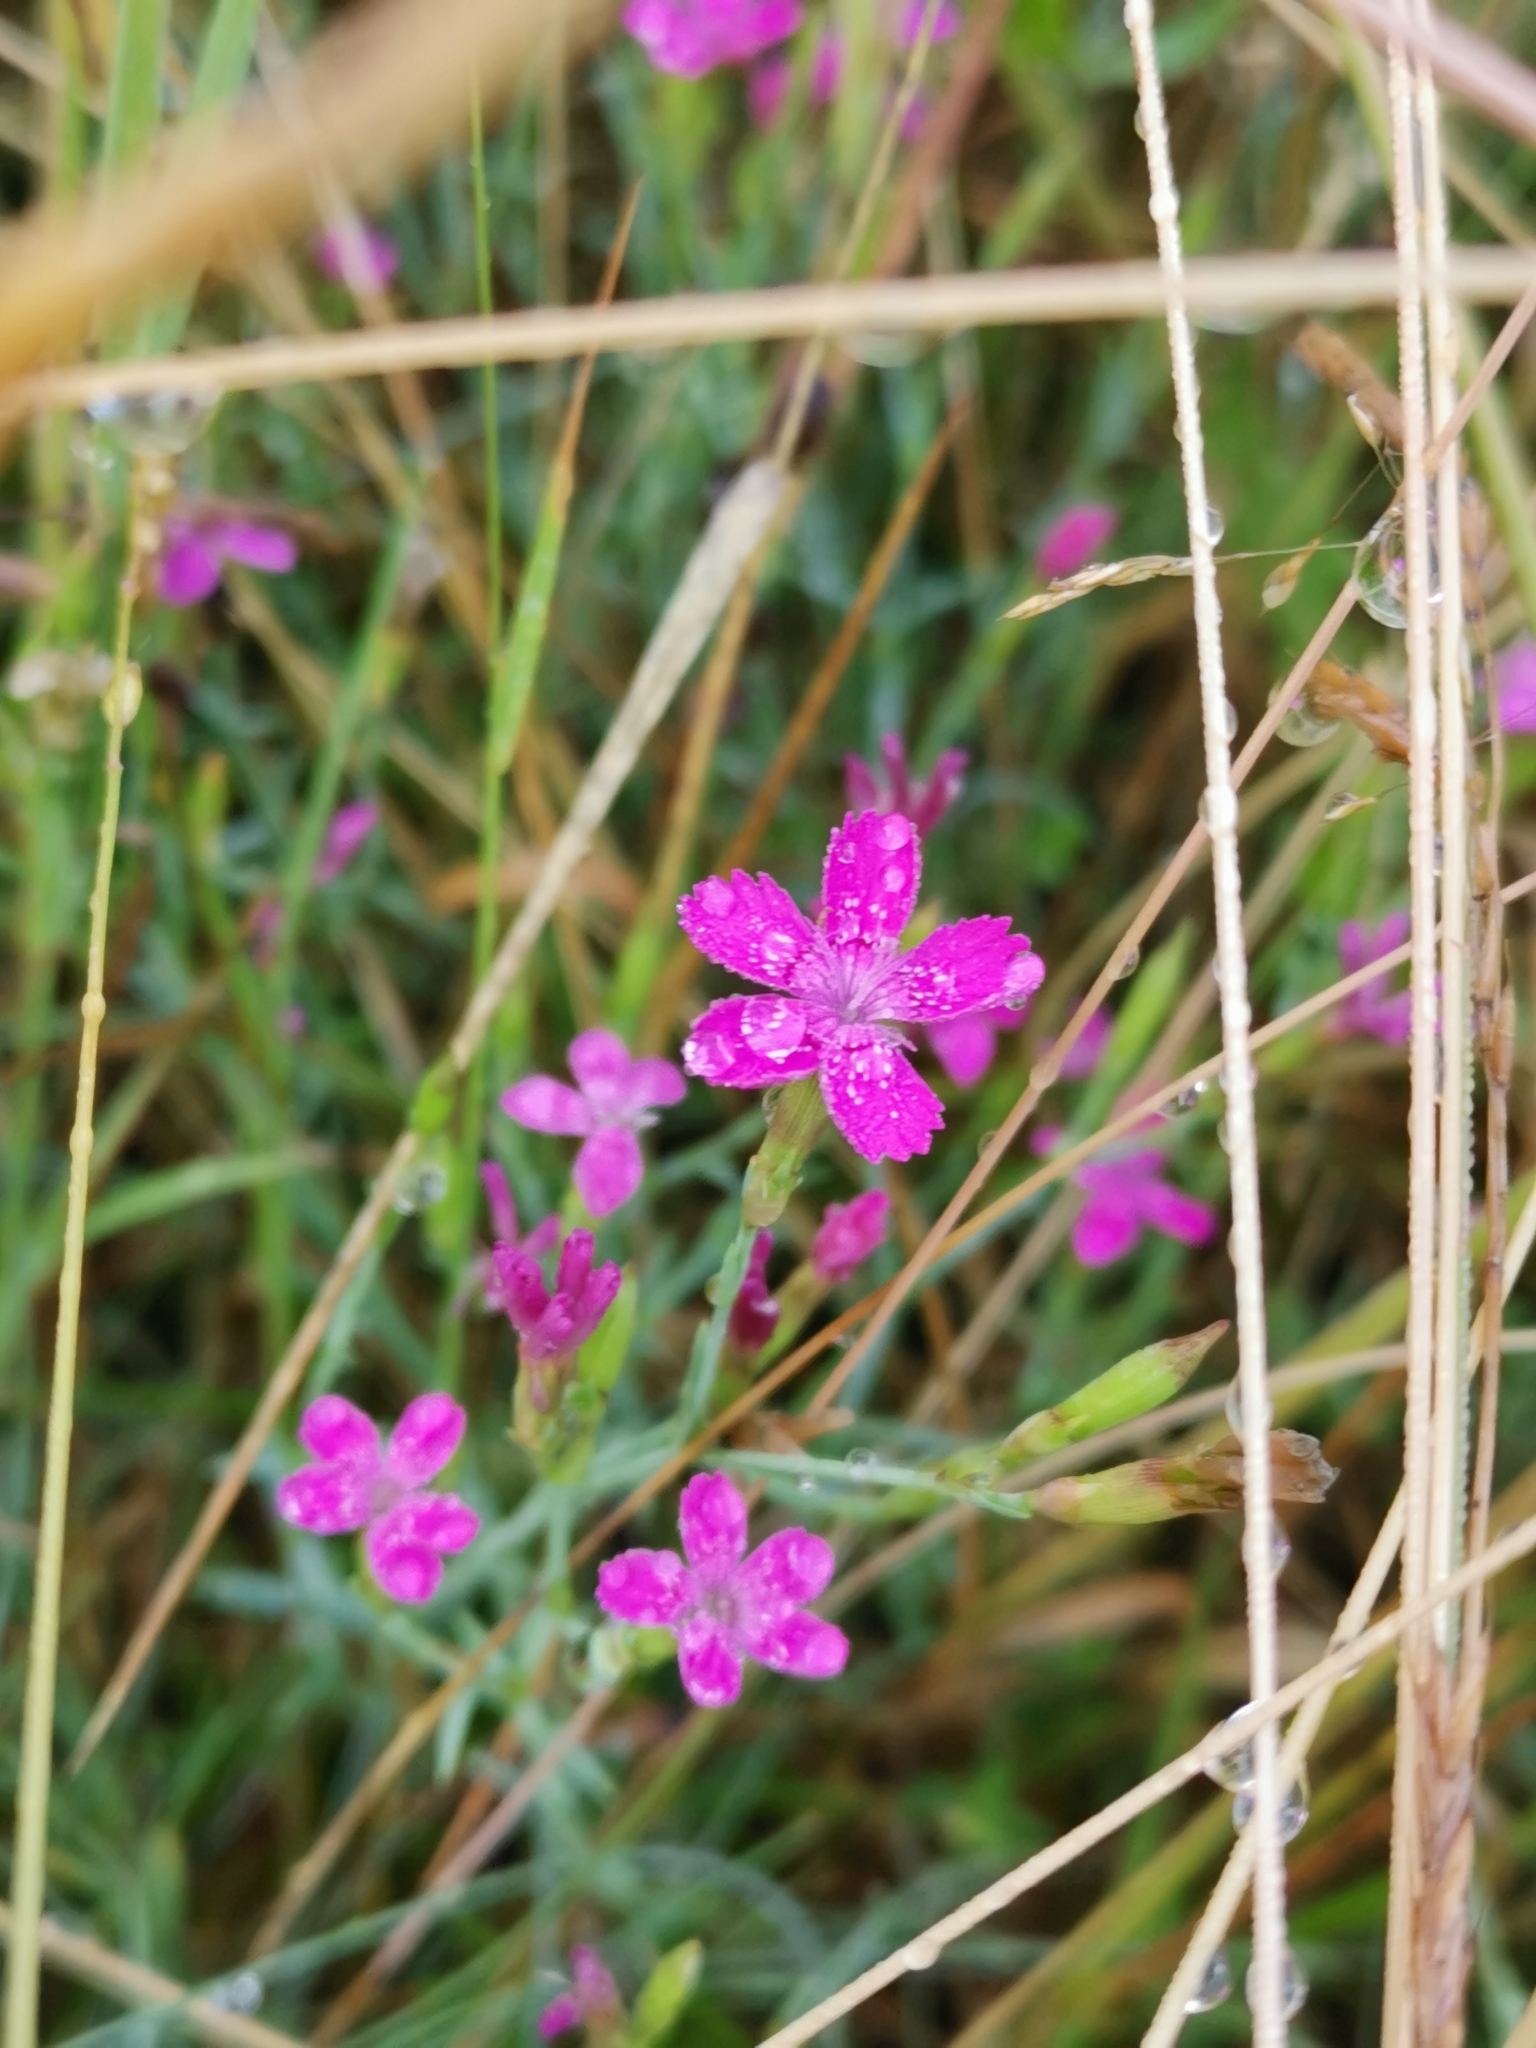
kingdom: Plantae
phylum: Tracheophyta
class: Magnoliopsida
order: Caryophyllales
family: Caryophyllaceae
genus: Dianthus
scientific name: Dianthus deltoides
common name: Maiden pink
